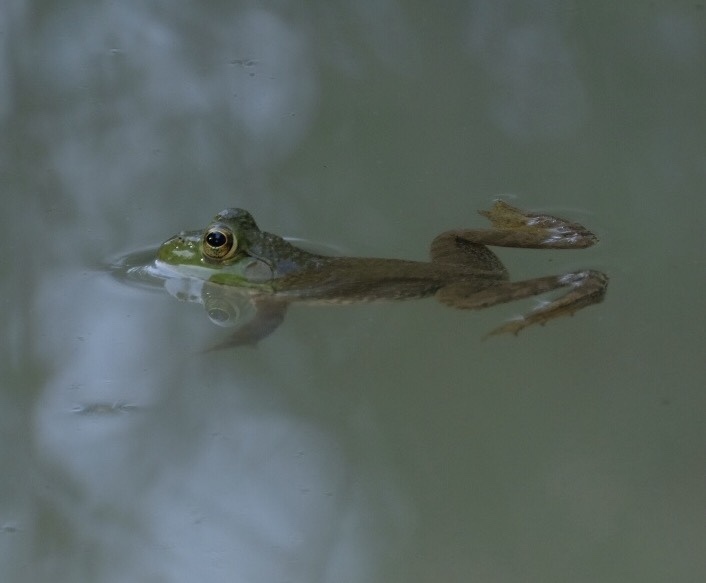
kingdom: Animalia
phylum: Chordata
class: Amphibia
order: Anura
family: Ranidae
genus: Lithobates
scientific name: Lithobates catesbeianus
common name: American bullfrog
